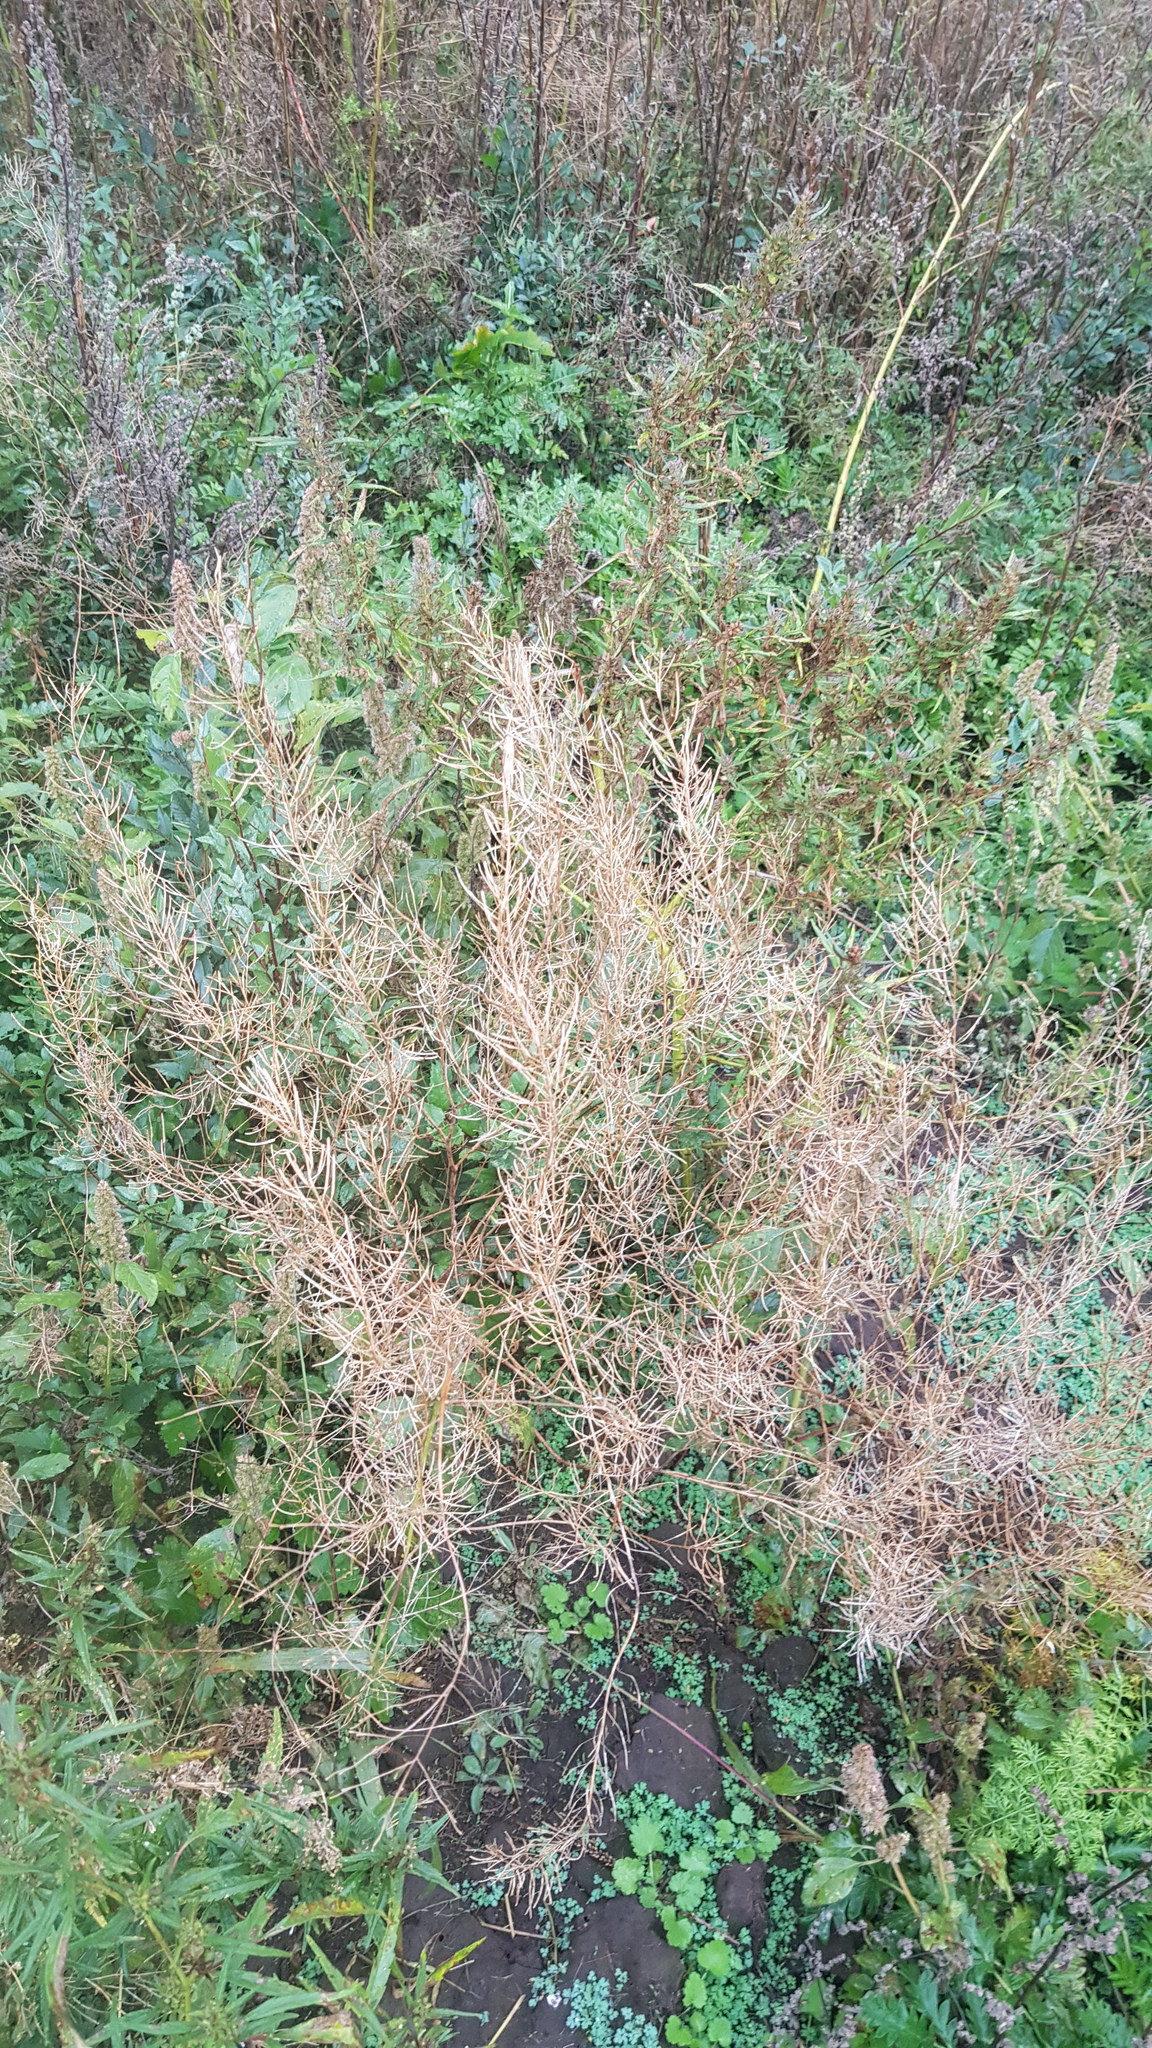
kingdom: Plantae
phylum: Tracheophyta
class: Magnoliopsida
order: Brassicales
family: Brassicaceae
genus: Descurainia
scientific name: Descurainia sophia
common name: Flixweed
